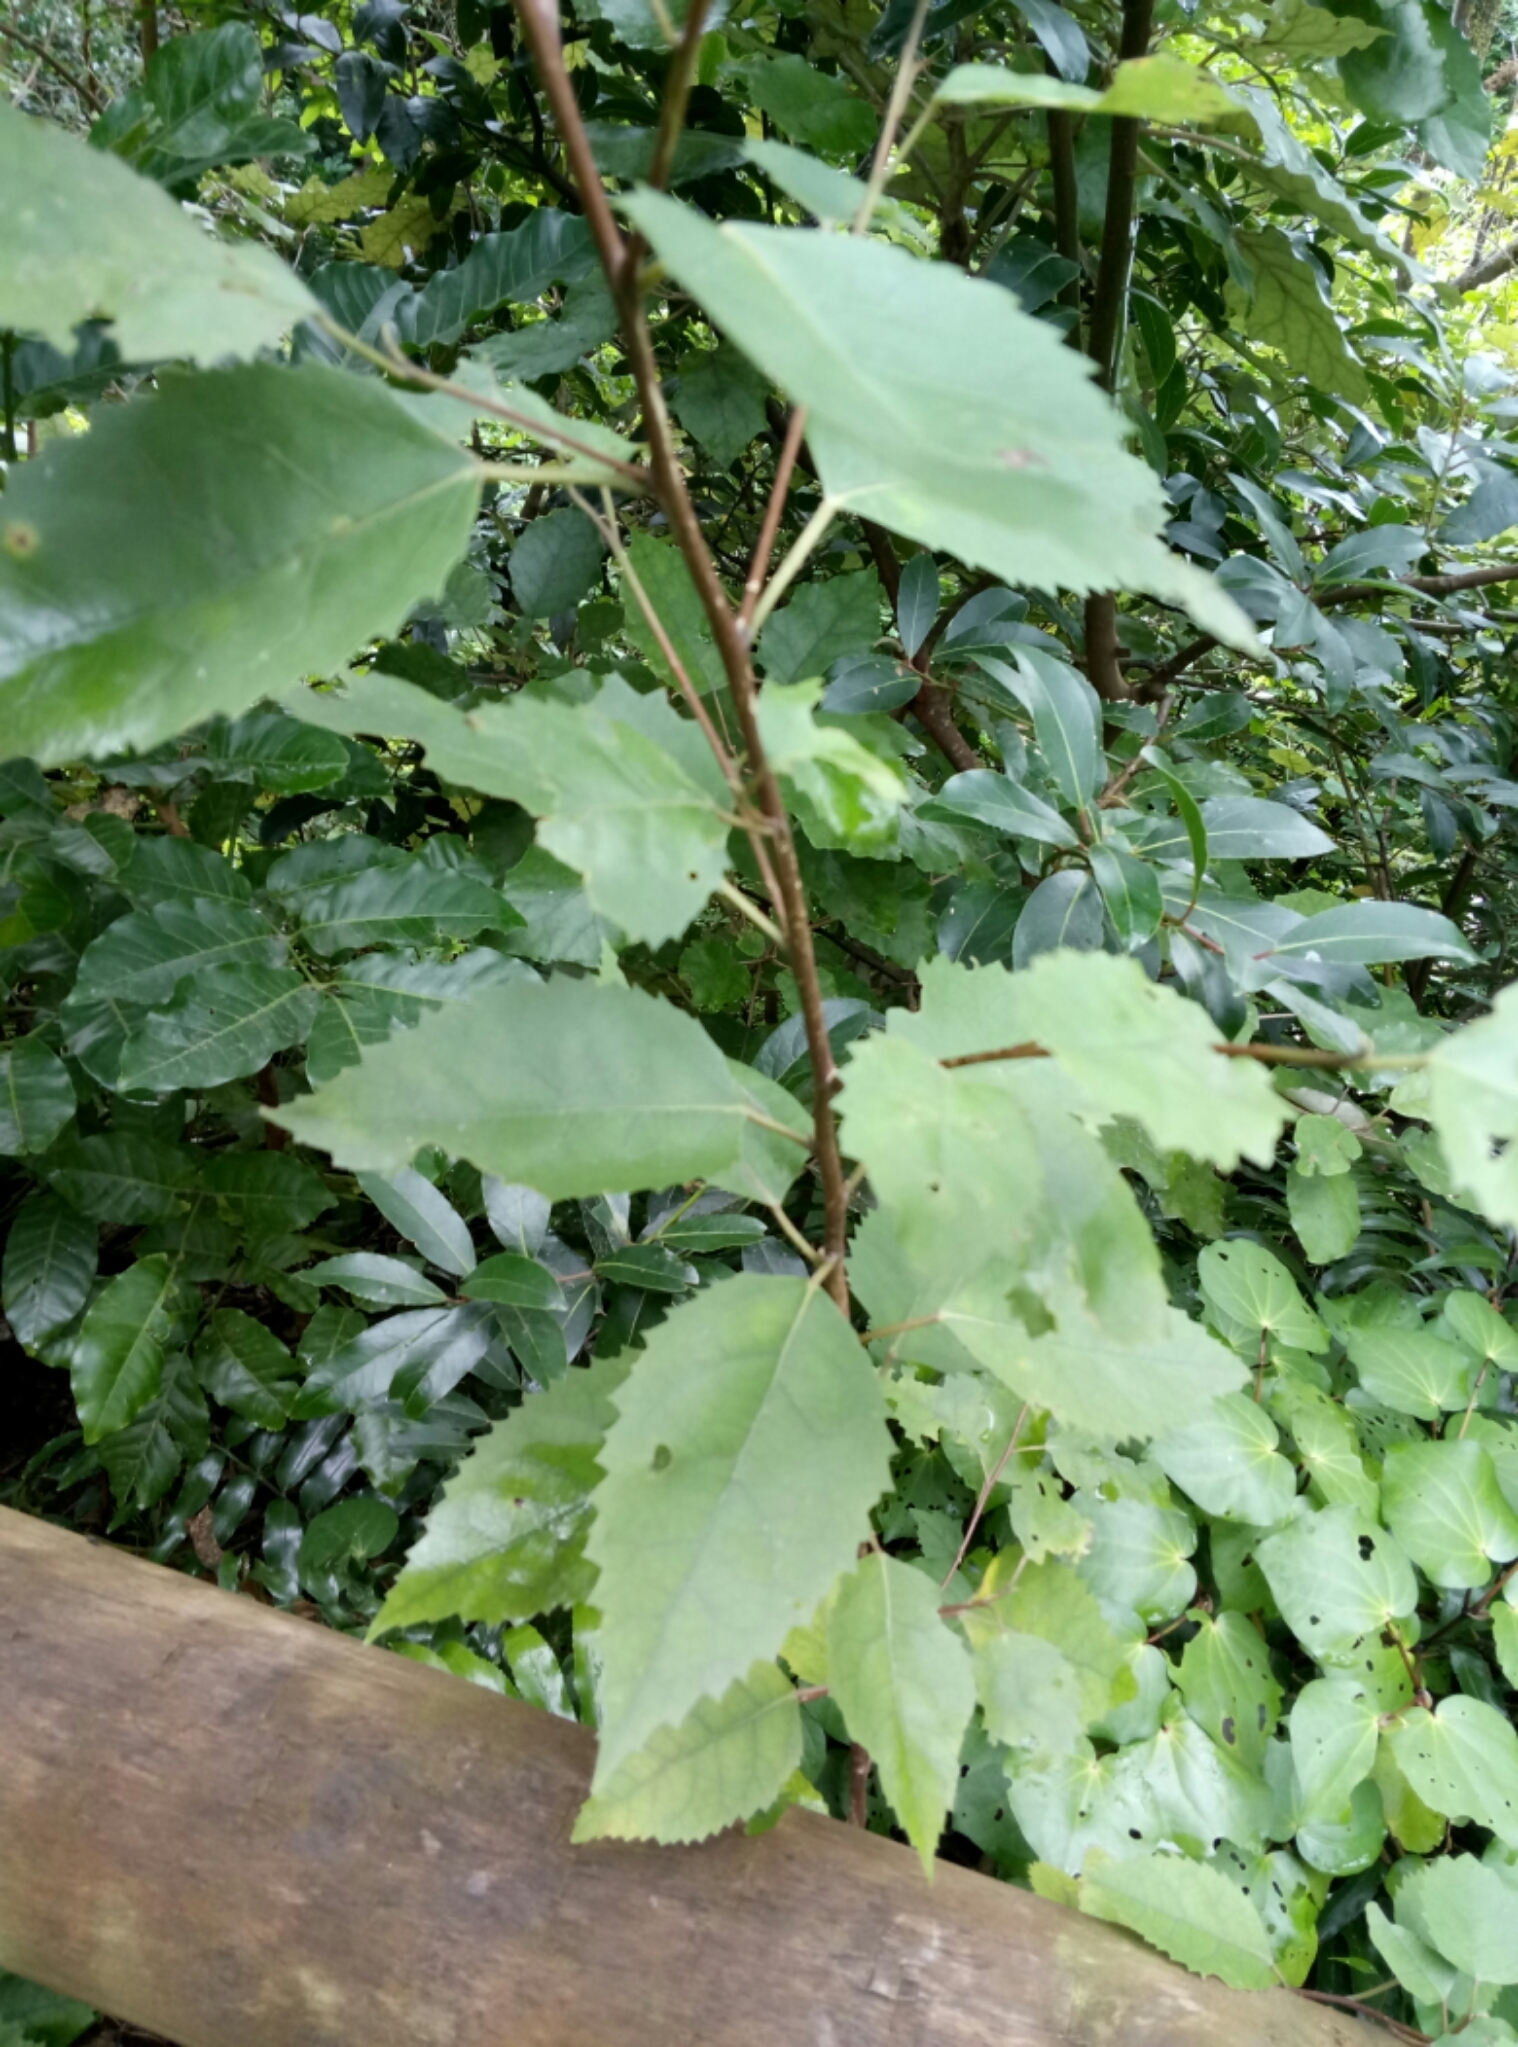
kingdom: Plantae
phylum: Tracheophyta
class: Magnoliopsida
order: Malvales
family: Malvaceae
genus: Hoheria
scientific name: Hoheria populnea
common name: Lacebark
